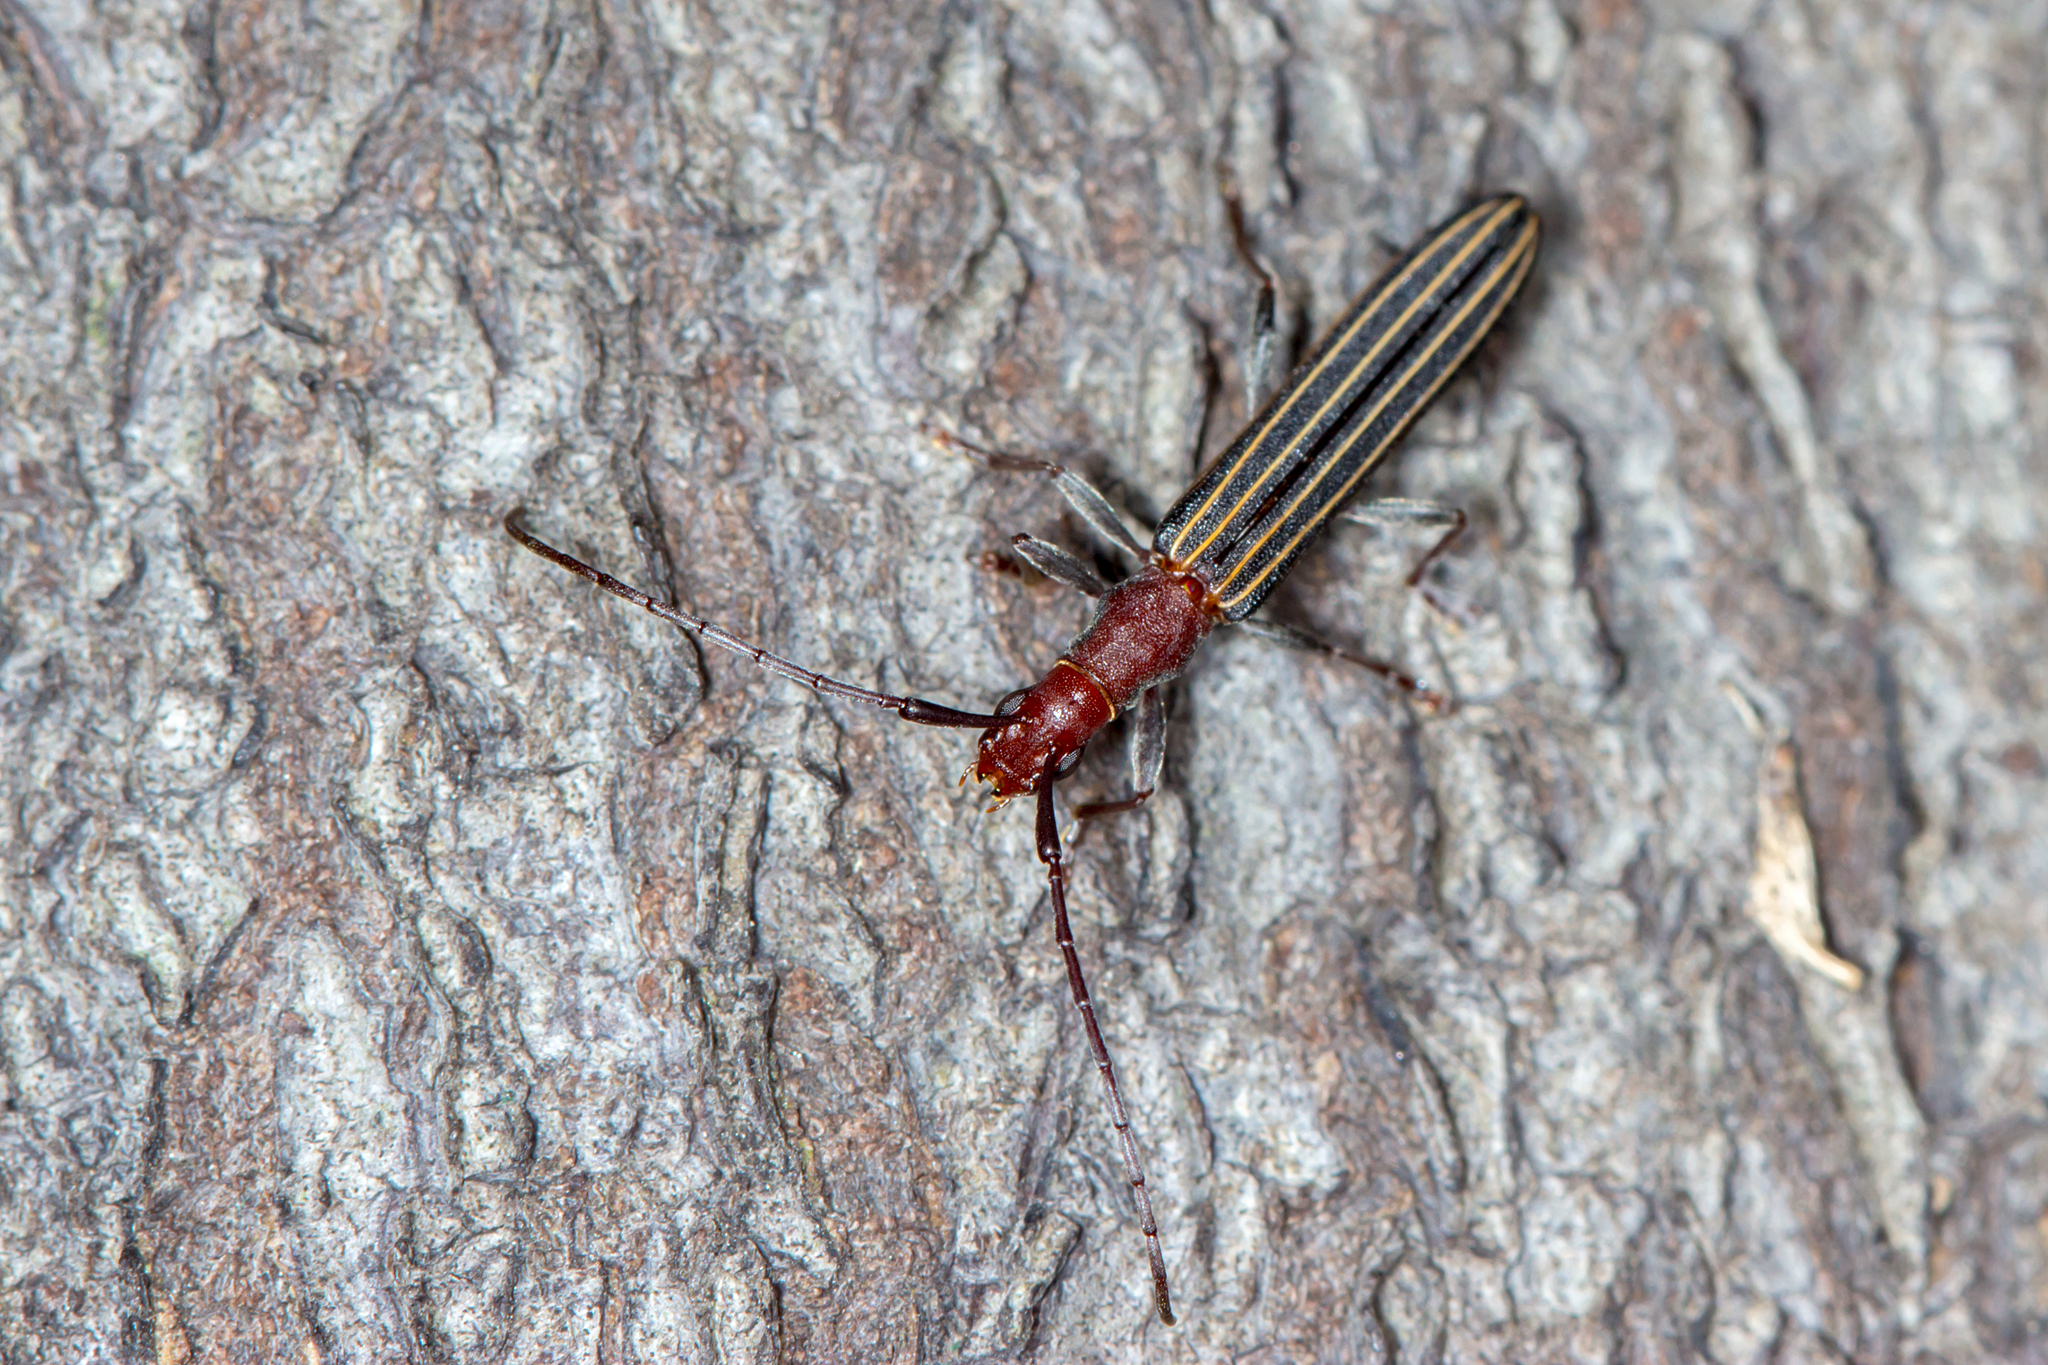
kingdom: Animalia
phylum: Arthropoda
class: Insecta
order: Coleoptera
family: Cerambycidae
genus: Syllitus
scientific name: Syllitus rectus
